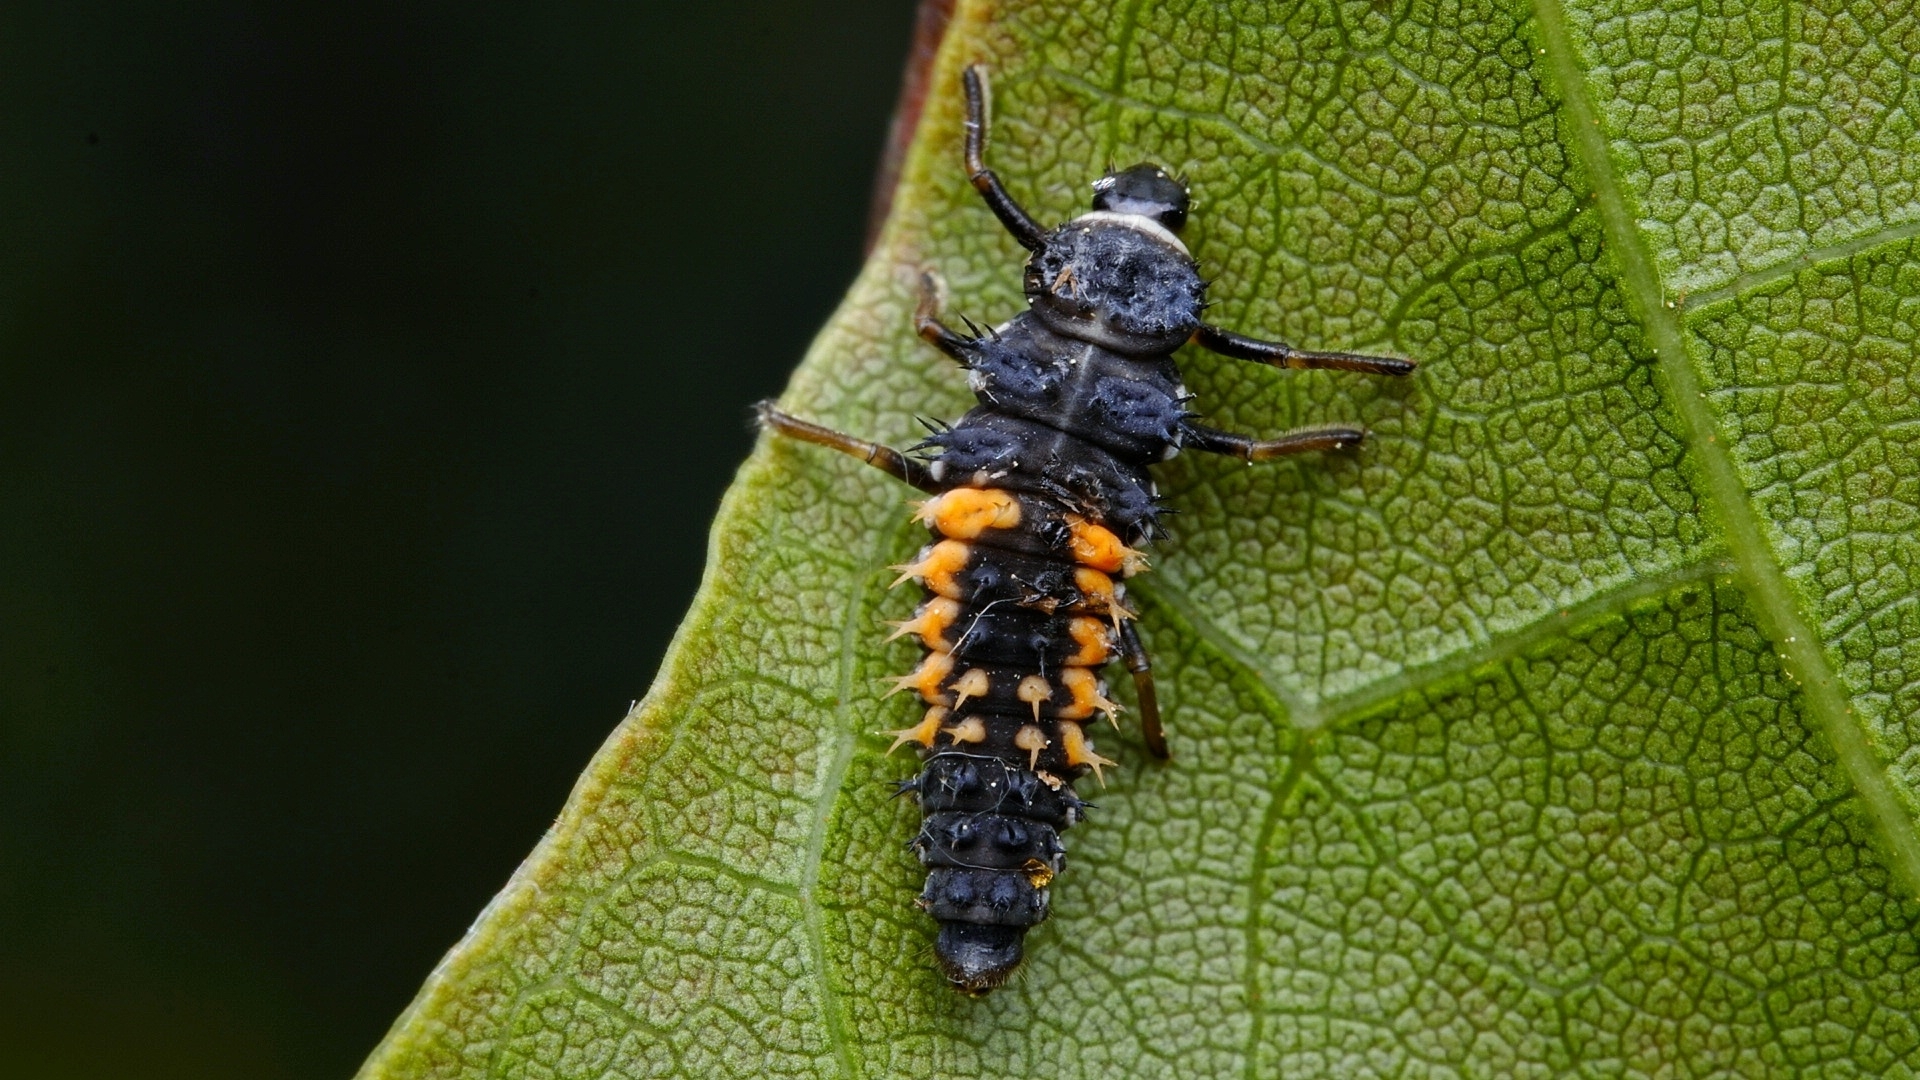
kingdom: Animalia
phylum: Arthropoda
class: Insecta
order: Coleoptera
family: Coccinellidae
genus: Harmonia
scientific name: Harmonia axyridis
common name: Harlequin ladybird
